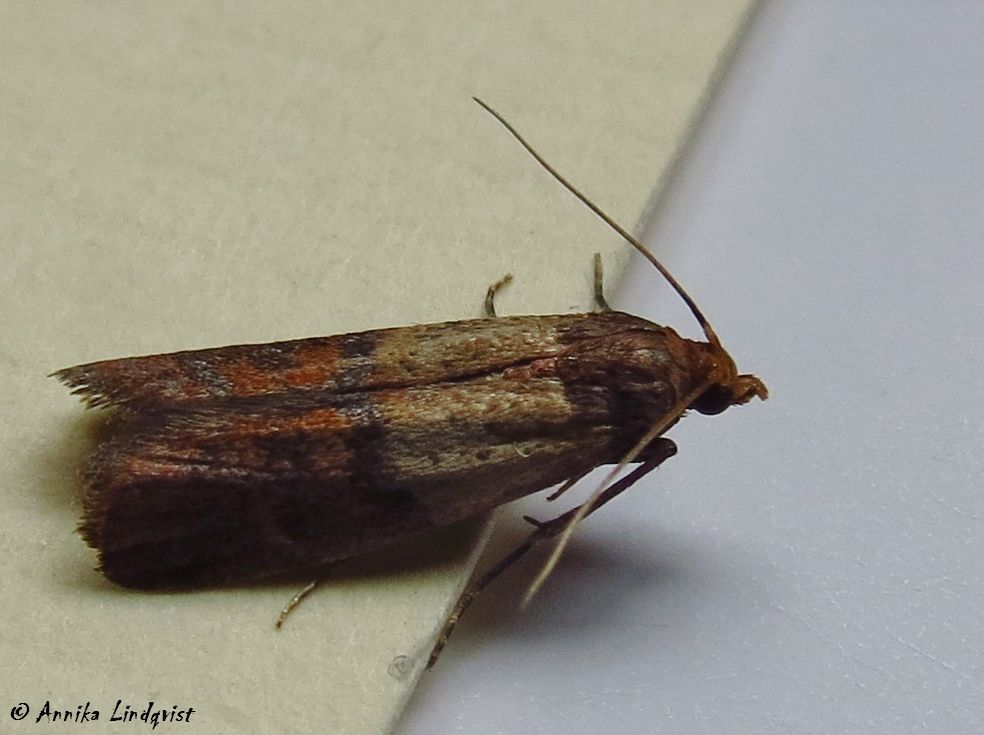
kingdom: Animalia
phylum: Arthropoda
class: Insecta
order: Lepidoptera
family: Pyralidae
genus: Plodia
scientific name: Plodia interpunctella
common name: Indian meal moth
